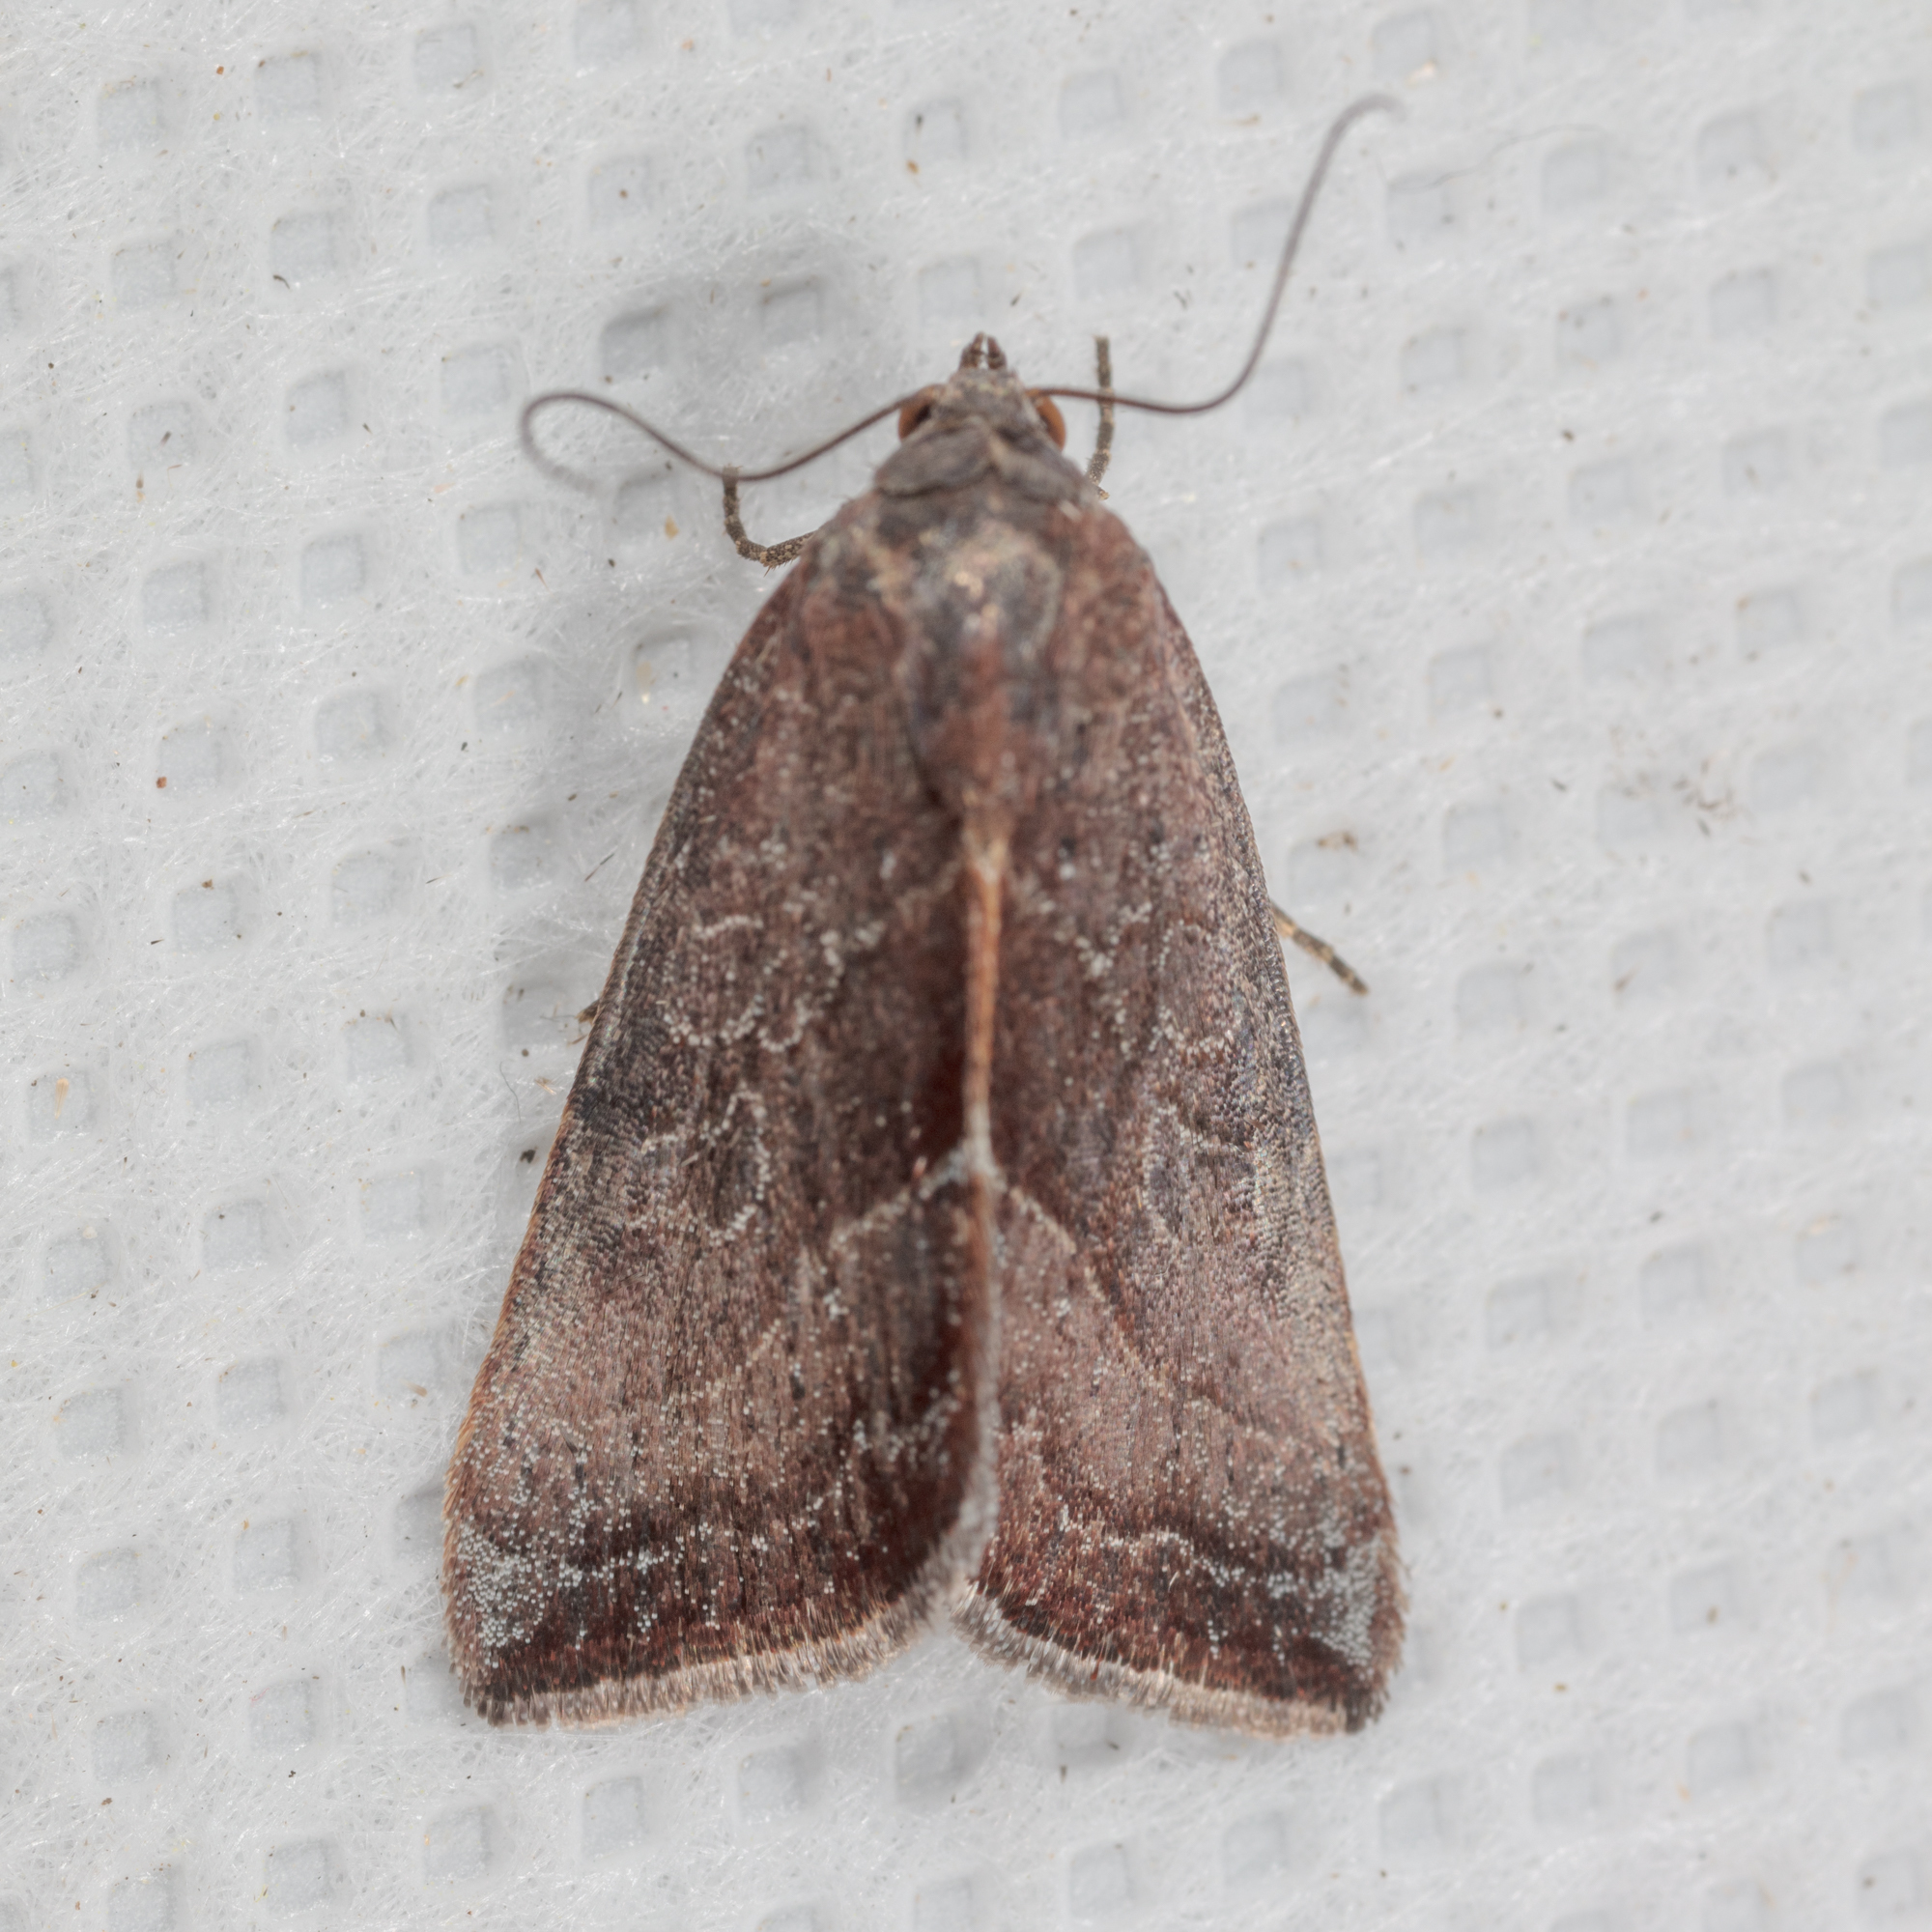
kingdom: Animalia
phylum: Arthropoda
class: Insecta
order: Lepidoptera
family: Noctuidae
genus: Galgula
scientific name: Galgula partita
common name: Wedgeling
